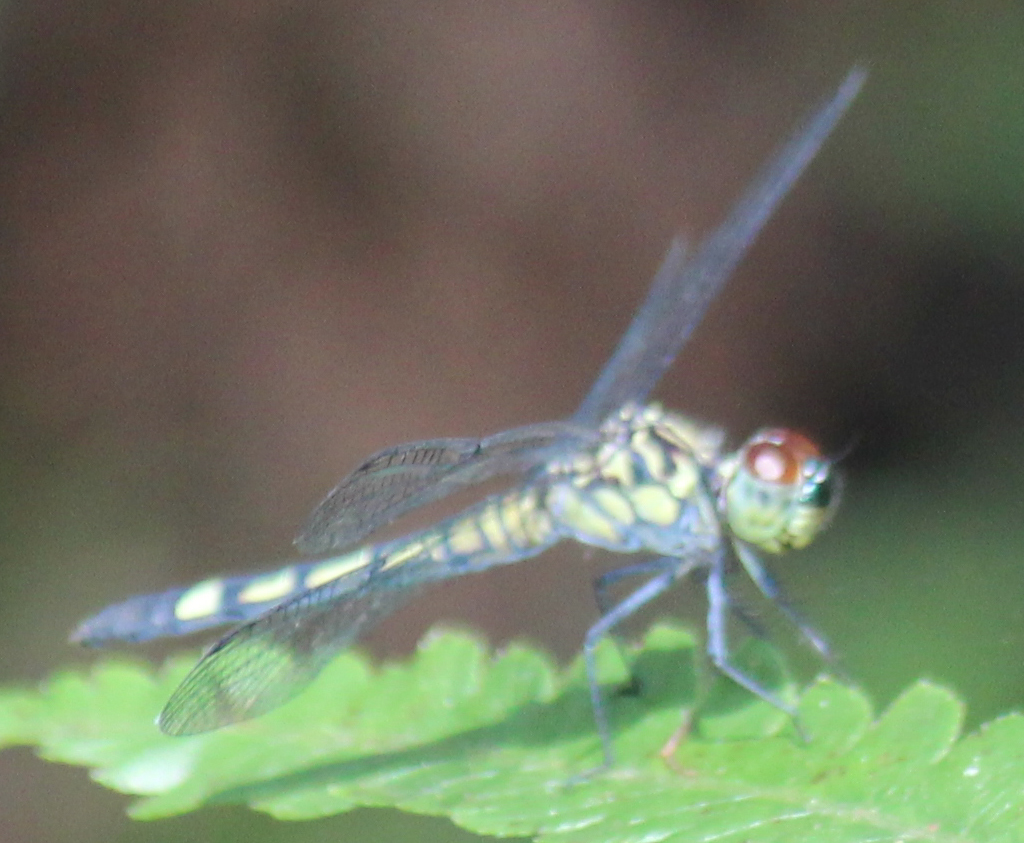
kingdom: Animalia
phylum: Arthropoda
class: Insecta
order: Odonata
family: Libellulidae
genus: Chalcostephia
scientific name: Chalcostephia flavifrons
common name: Inspector
